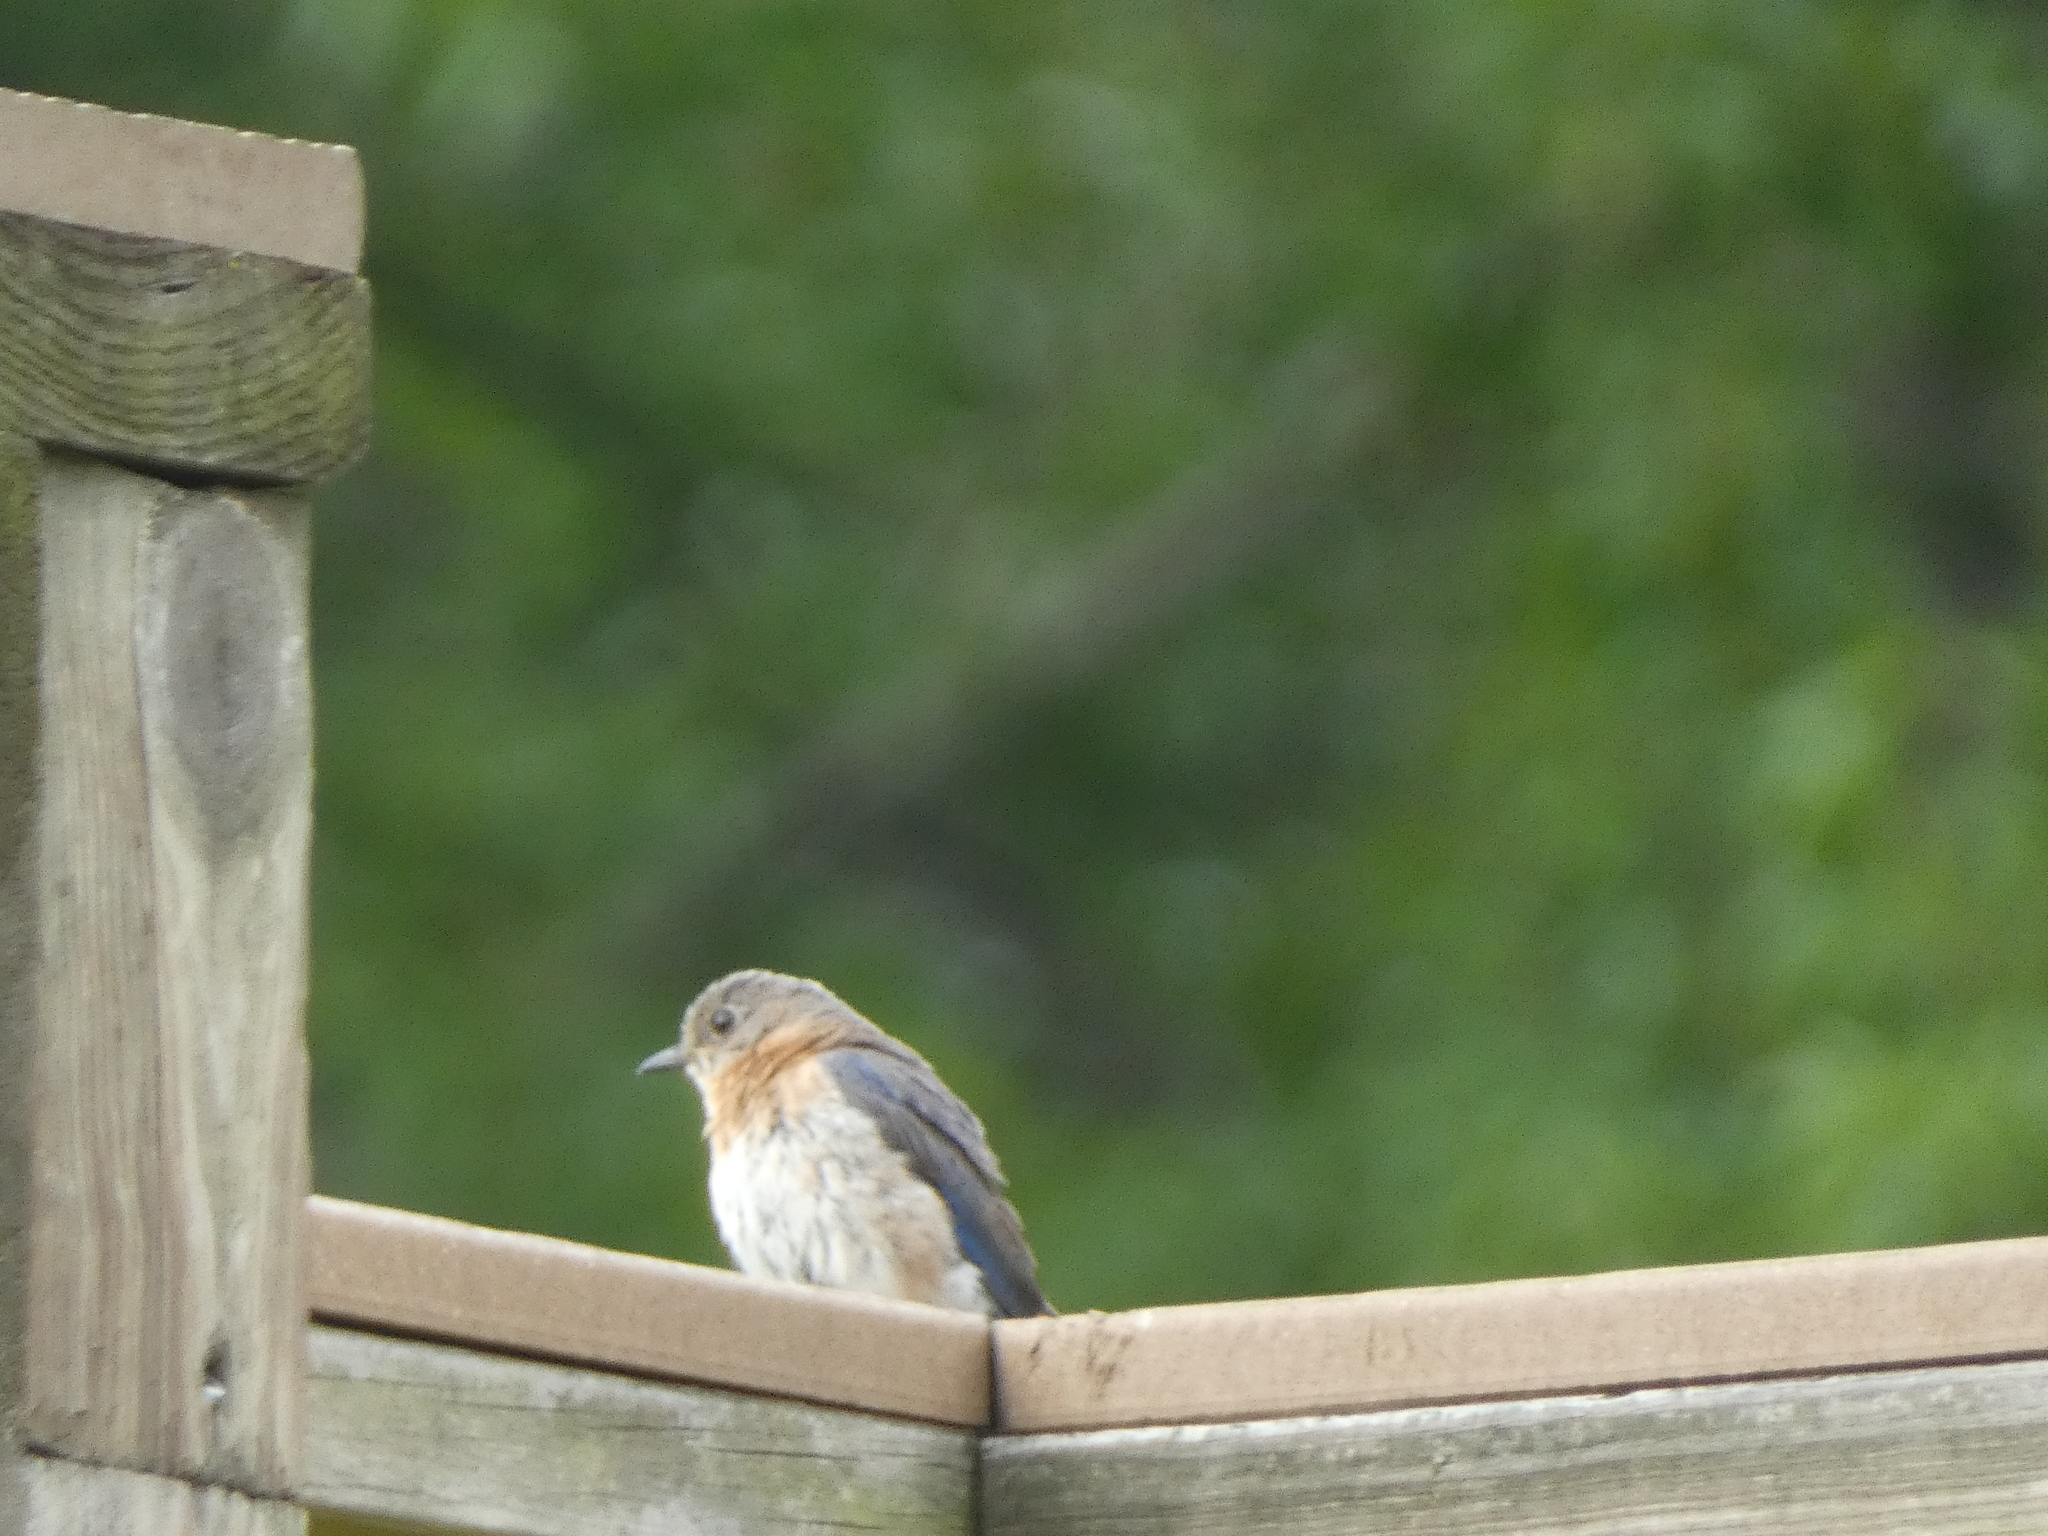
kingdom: Animalia
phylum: Chordata
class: Aves
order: Passeriformes
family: Turdidae
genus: Sialia
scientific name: Sialia sialis
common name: Eastern bluebird
